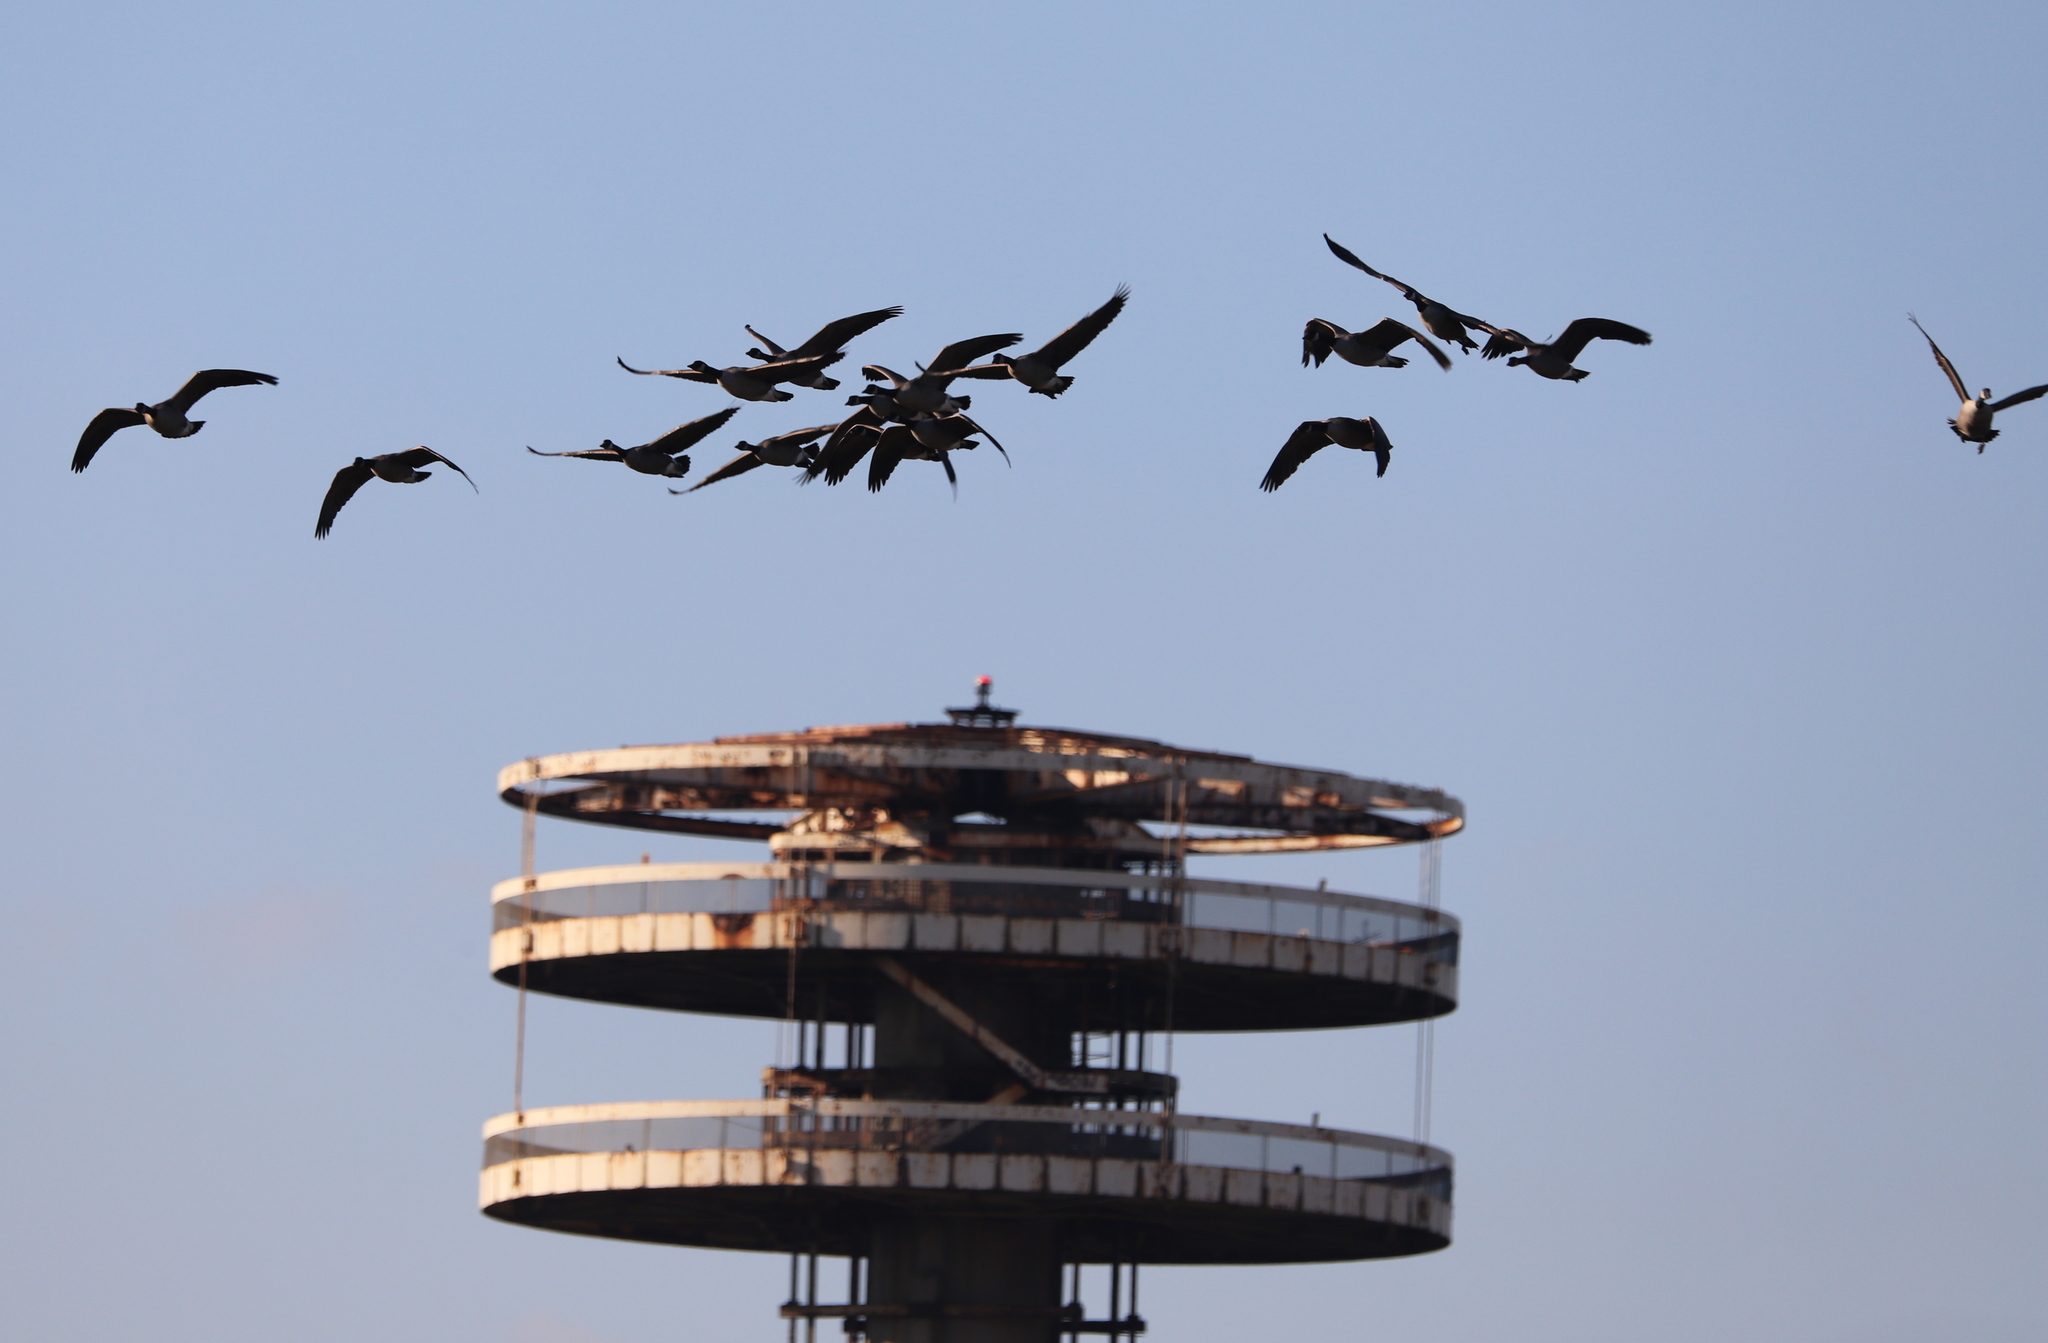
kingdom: Animalia
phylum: Chordata
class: Aves
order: Anseriformes
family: Anatidae
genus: Branta
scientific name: Branta canadensis
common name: Canada goose
